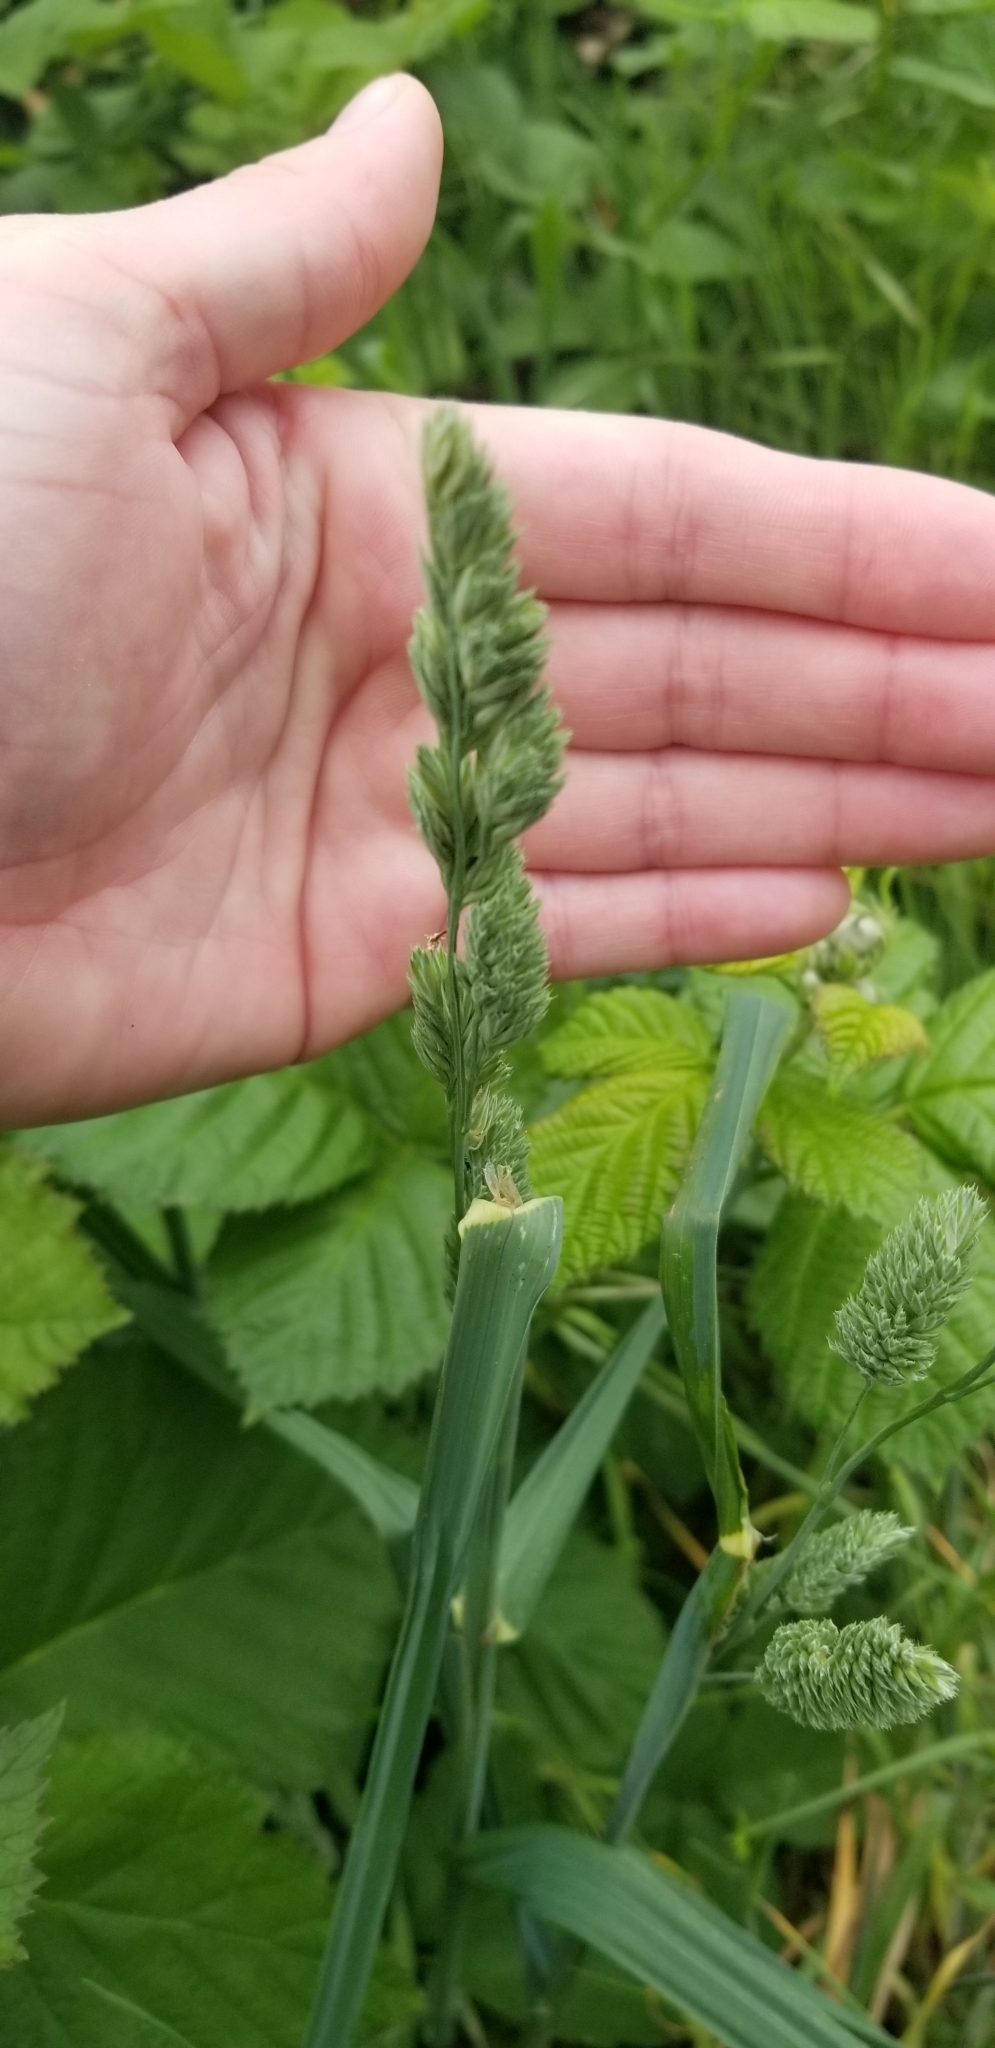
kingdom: Plantae
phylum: Tracheophyta
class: Liliopsida
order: Poales
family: Poaceae
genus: Dactylis
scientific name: Dactylis glomerata
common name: Orchardgrass
